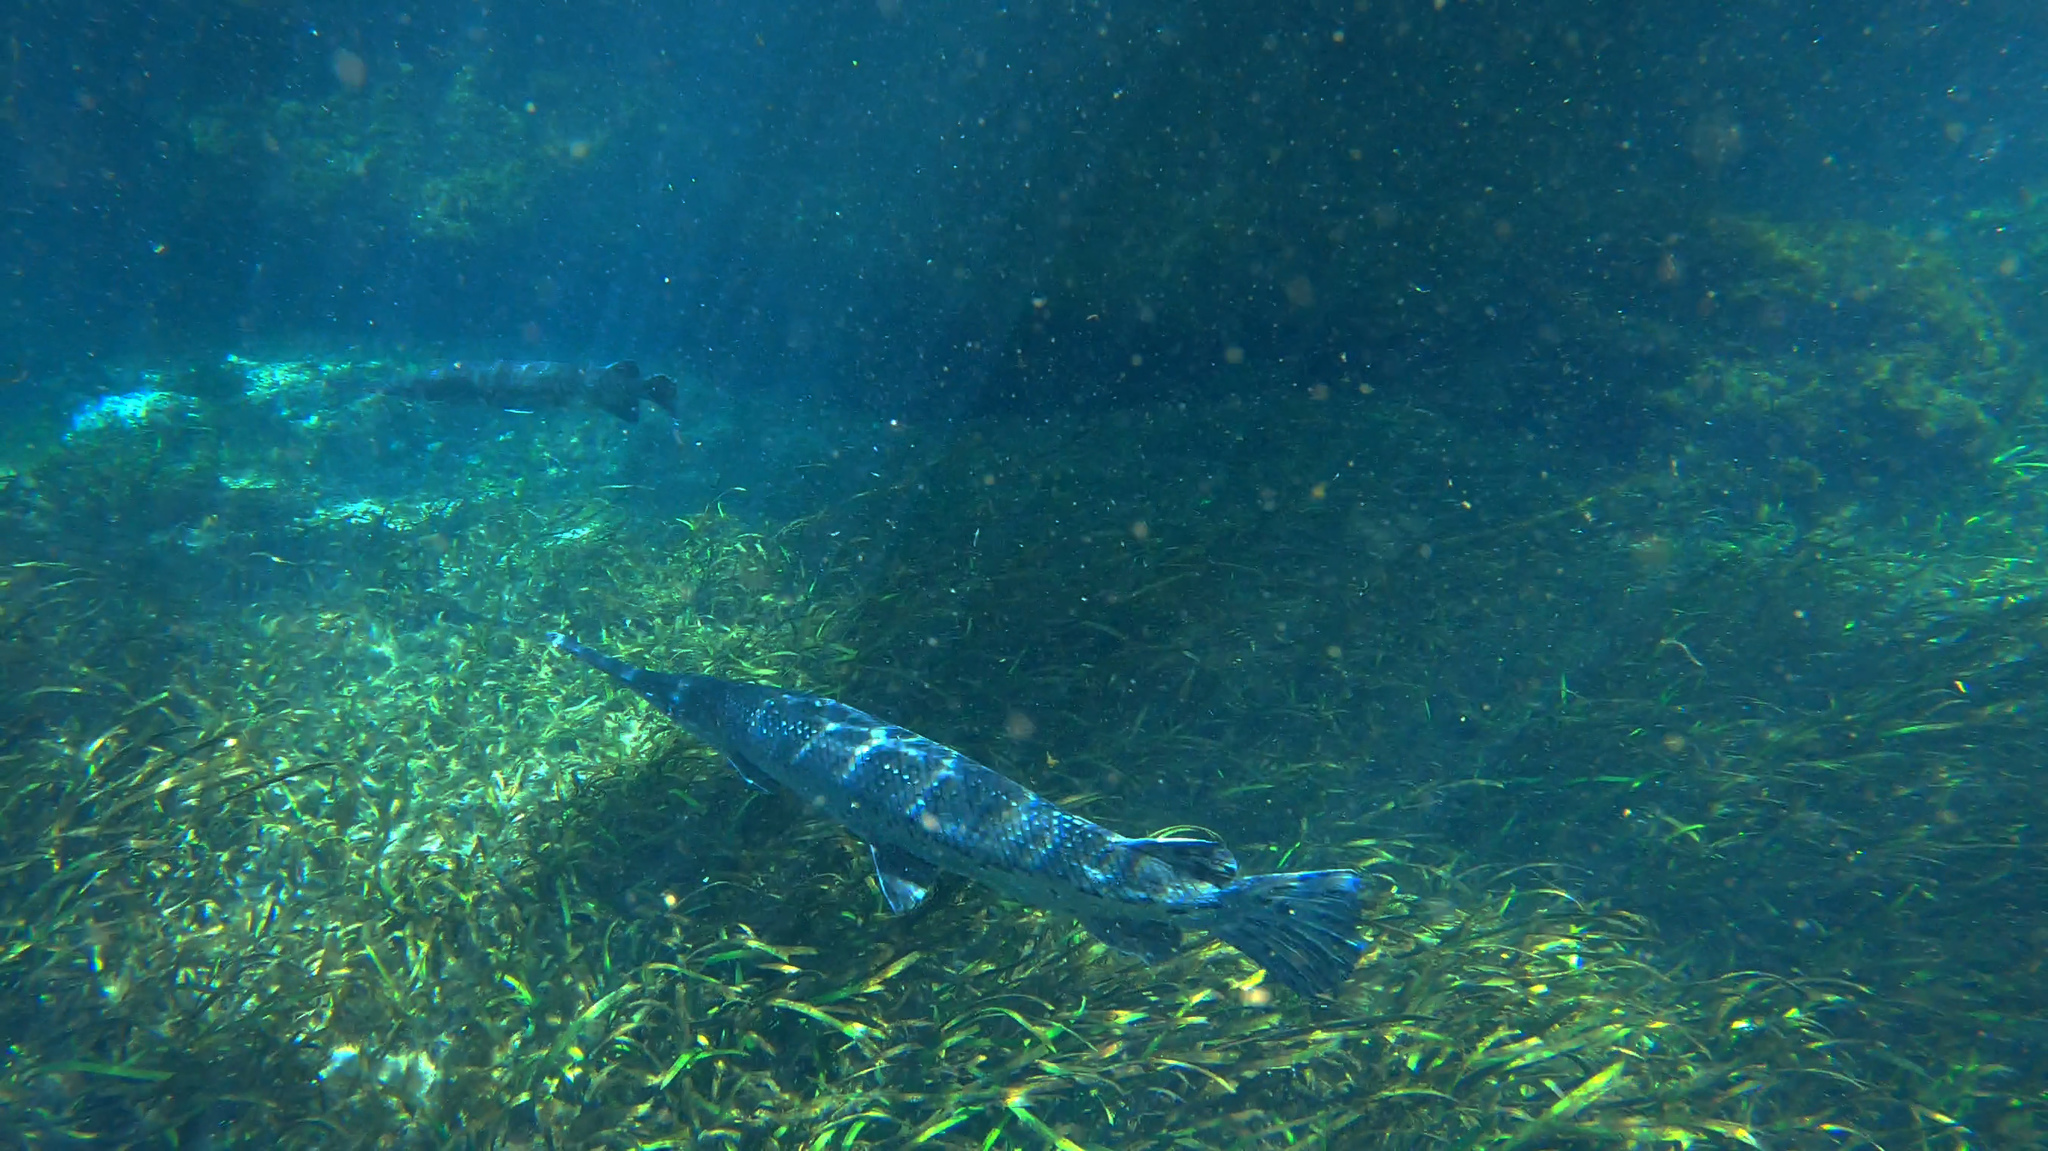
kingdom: Animalia
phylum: Chordata
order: Lepisosteiformes
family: Lepisosteidae
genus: Lepisosteus
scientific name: Lepisosteus osseus
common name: Longnose gar
